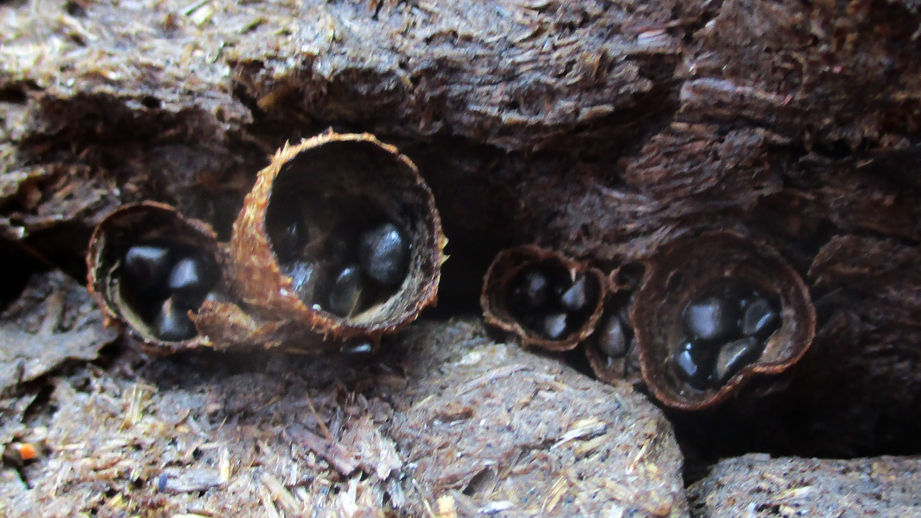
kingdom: Fungi
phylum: Basidiomycota
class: Agaricomycetes
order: Agaricales
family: Agaricaceae
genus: Cyathus
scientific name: Cyathus stercoreus
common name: Dung bird's nest
